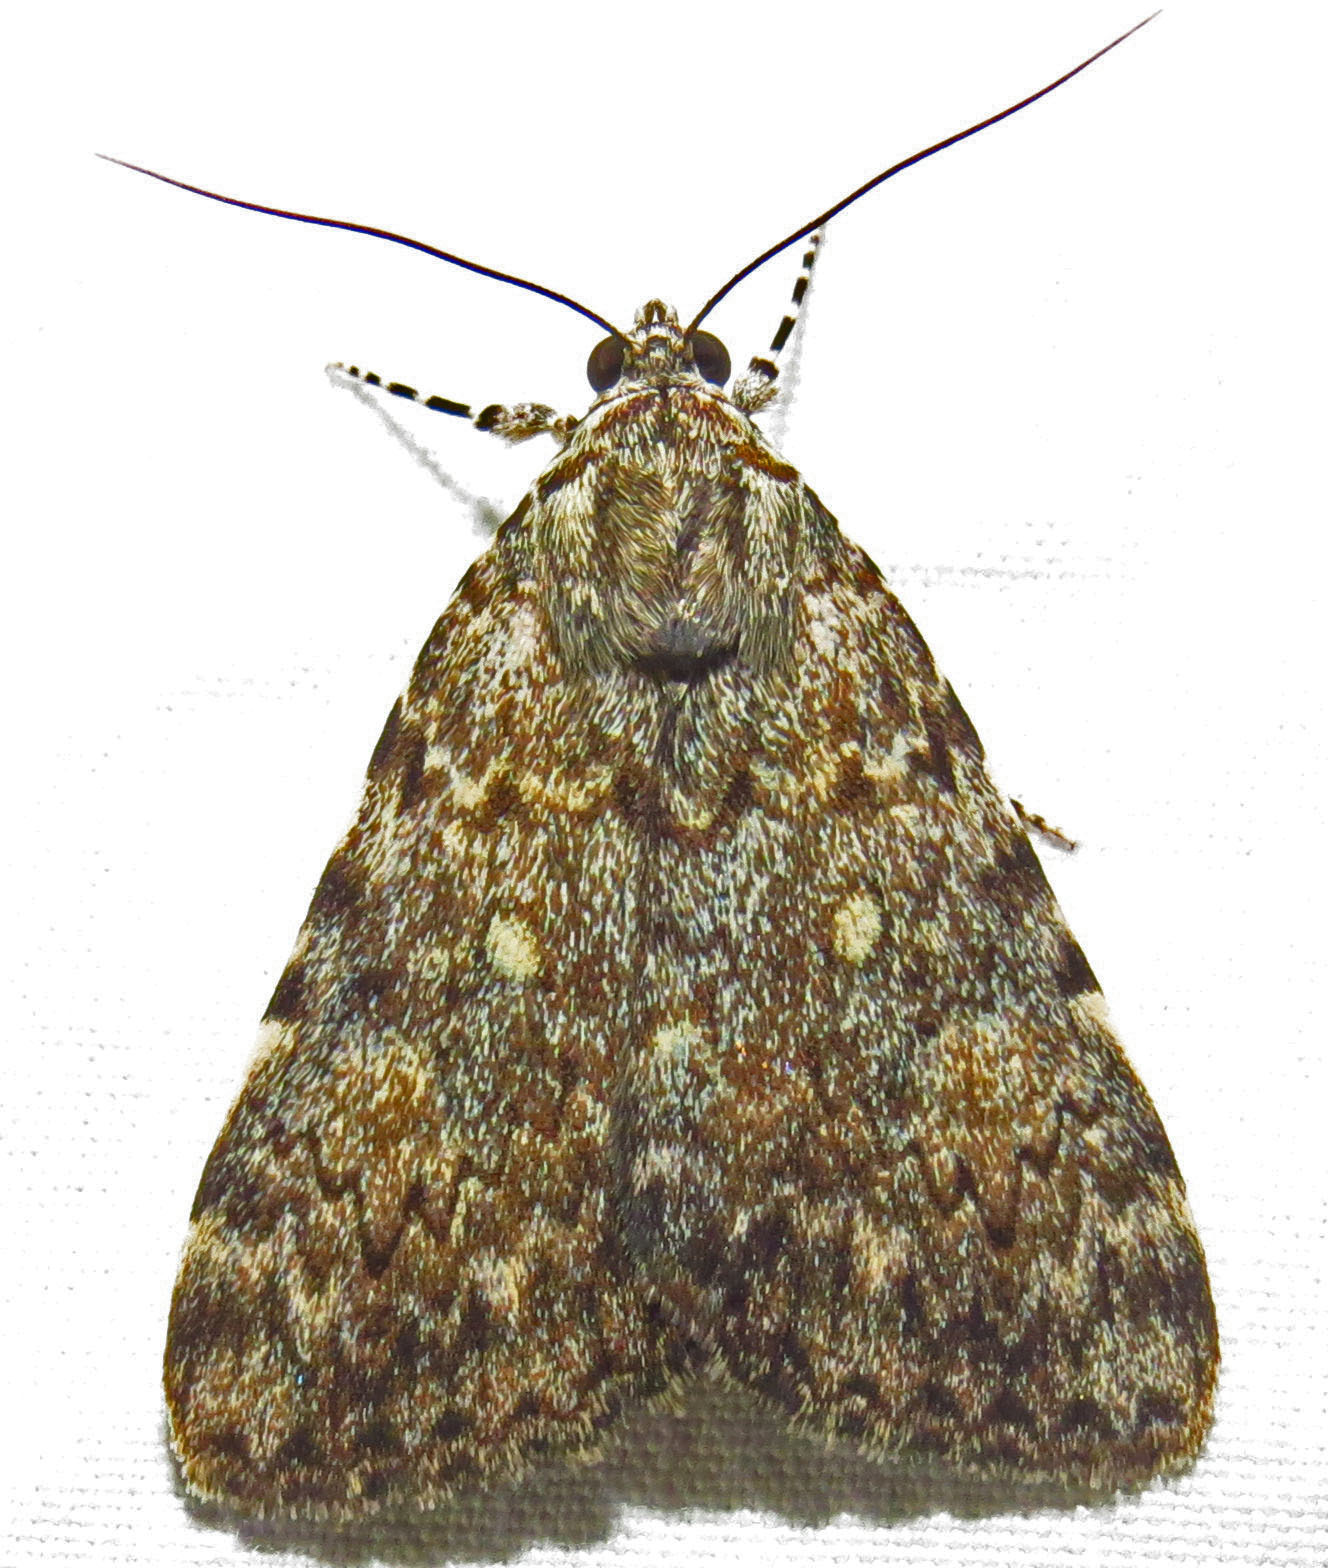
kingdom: Animalia
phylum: Arthropoda
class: Insecta
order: Lepidoptera
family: Erebidae
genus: Catocala
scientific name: Catocala lineella
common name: Little lined underwing
